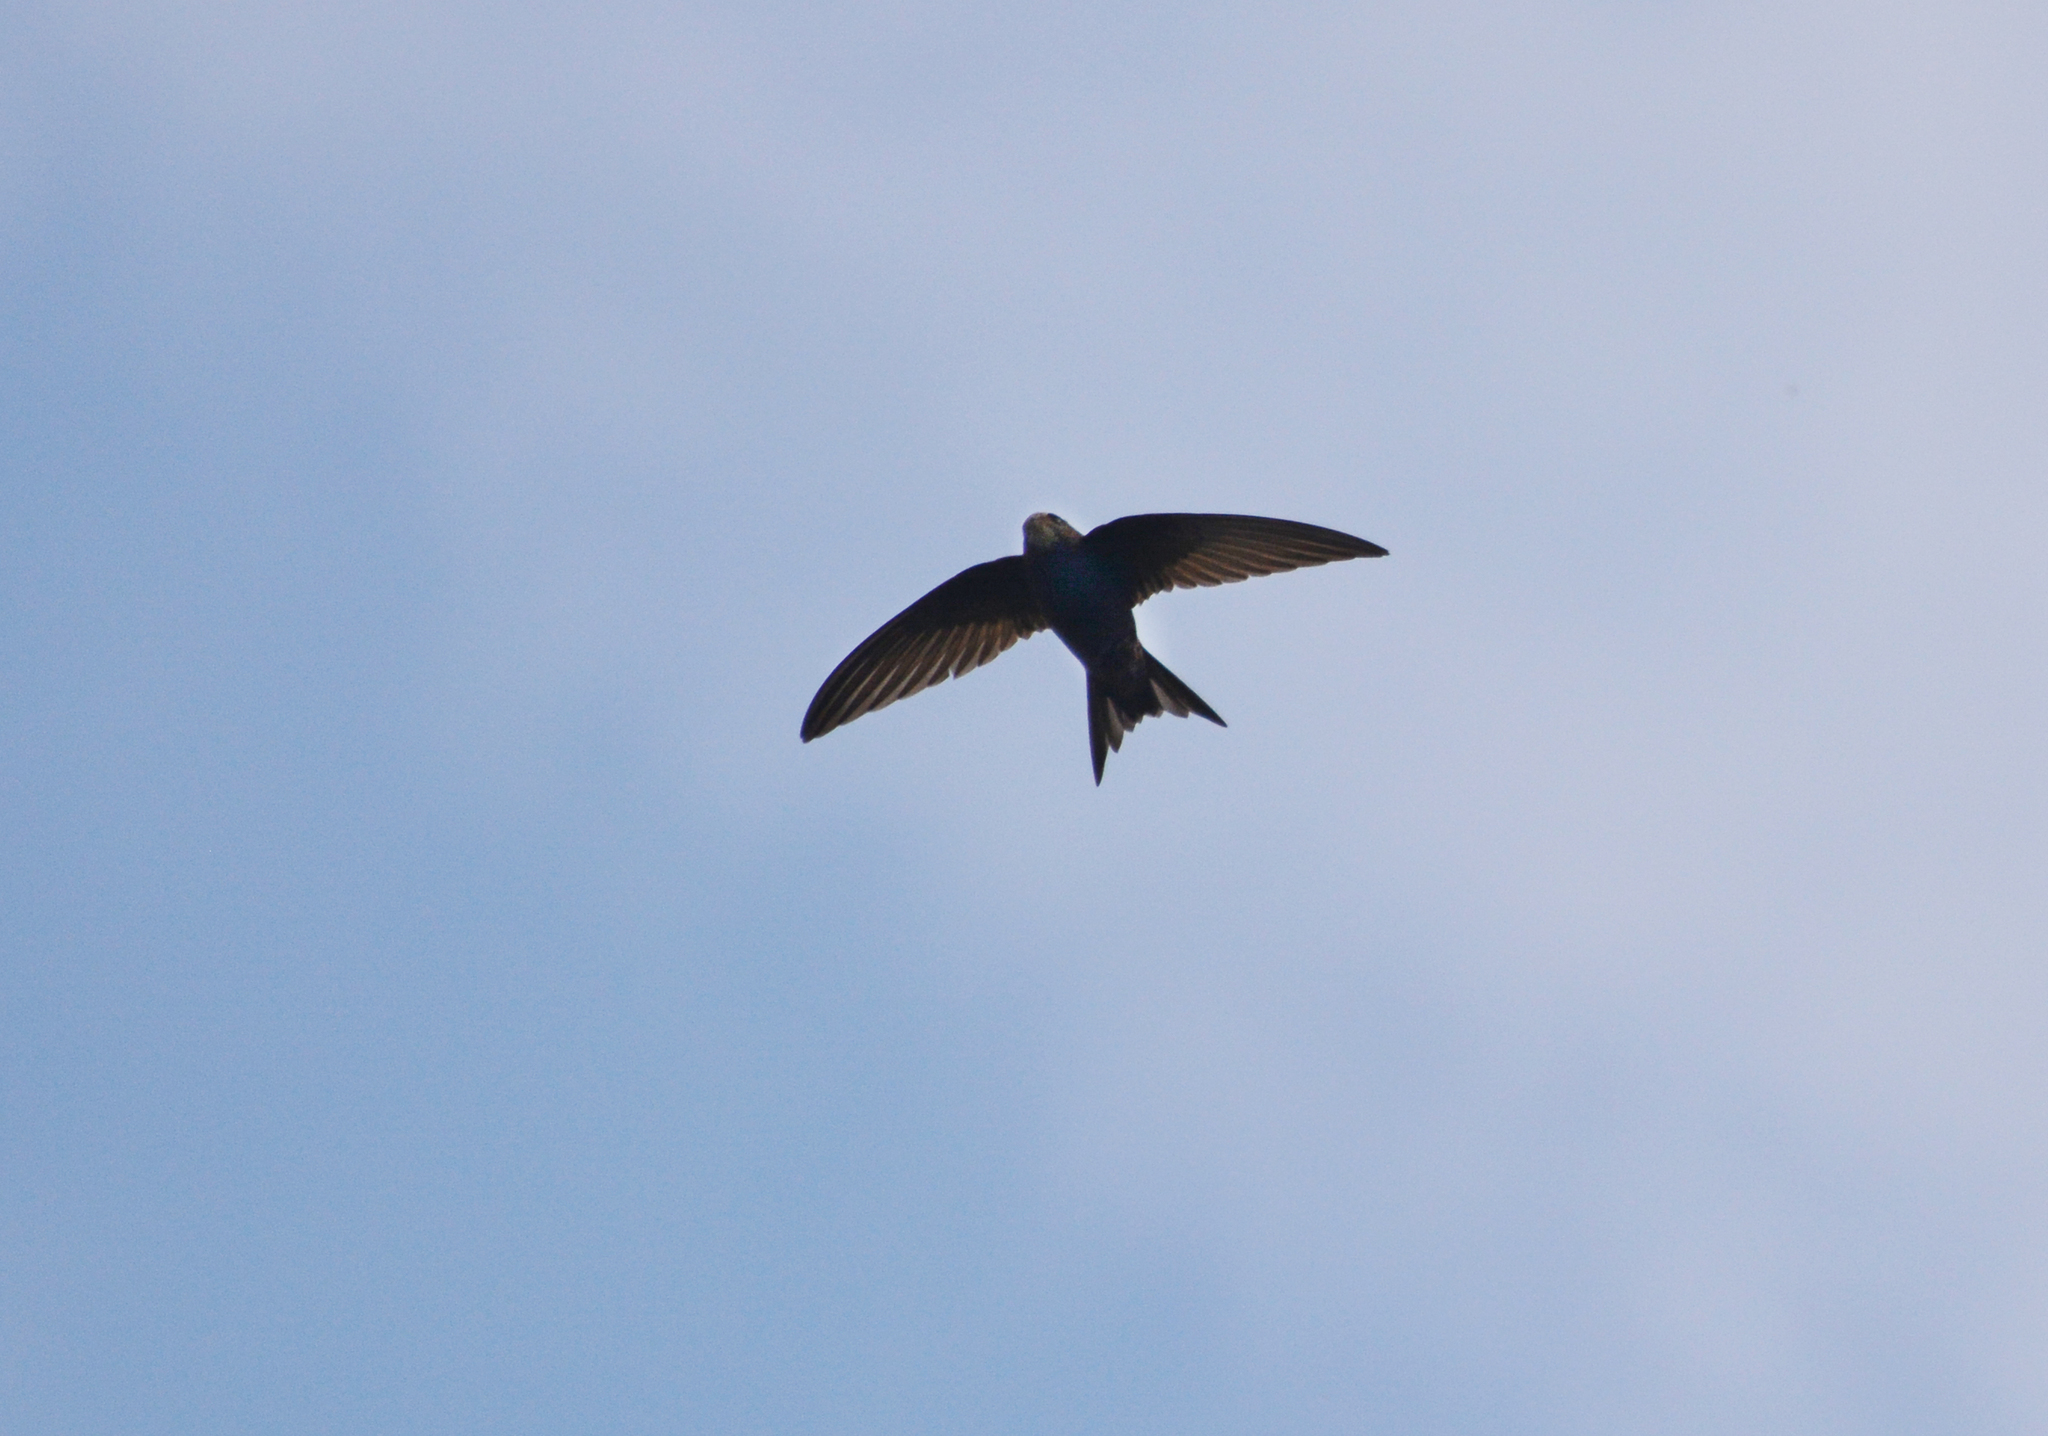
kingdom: Animalia
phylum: Chordata
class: Aves
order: Apodiformes
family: Apodidae
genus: Apus
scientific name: Apus apus
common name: Common swift
